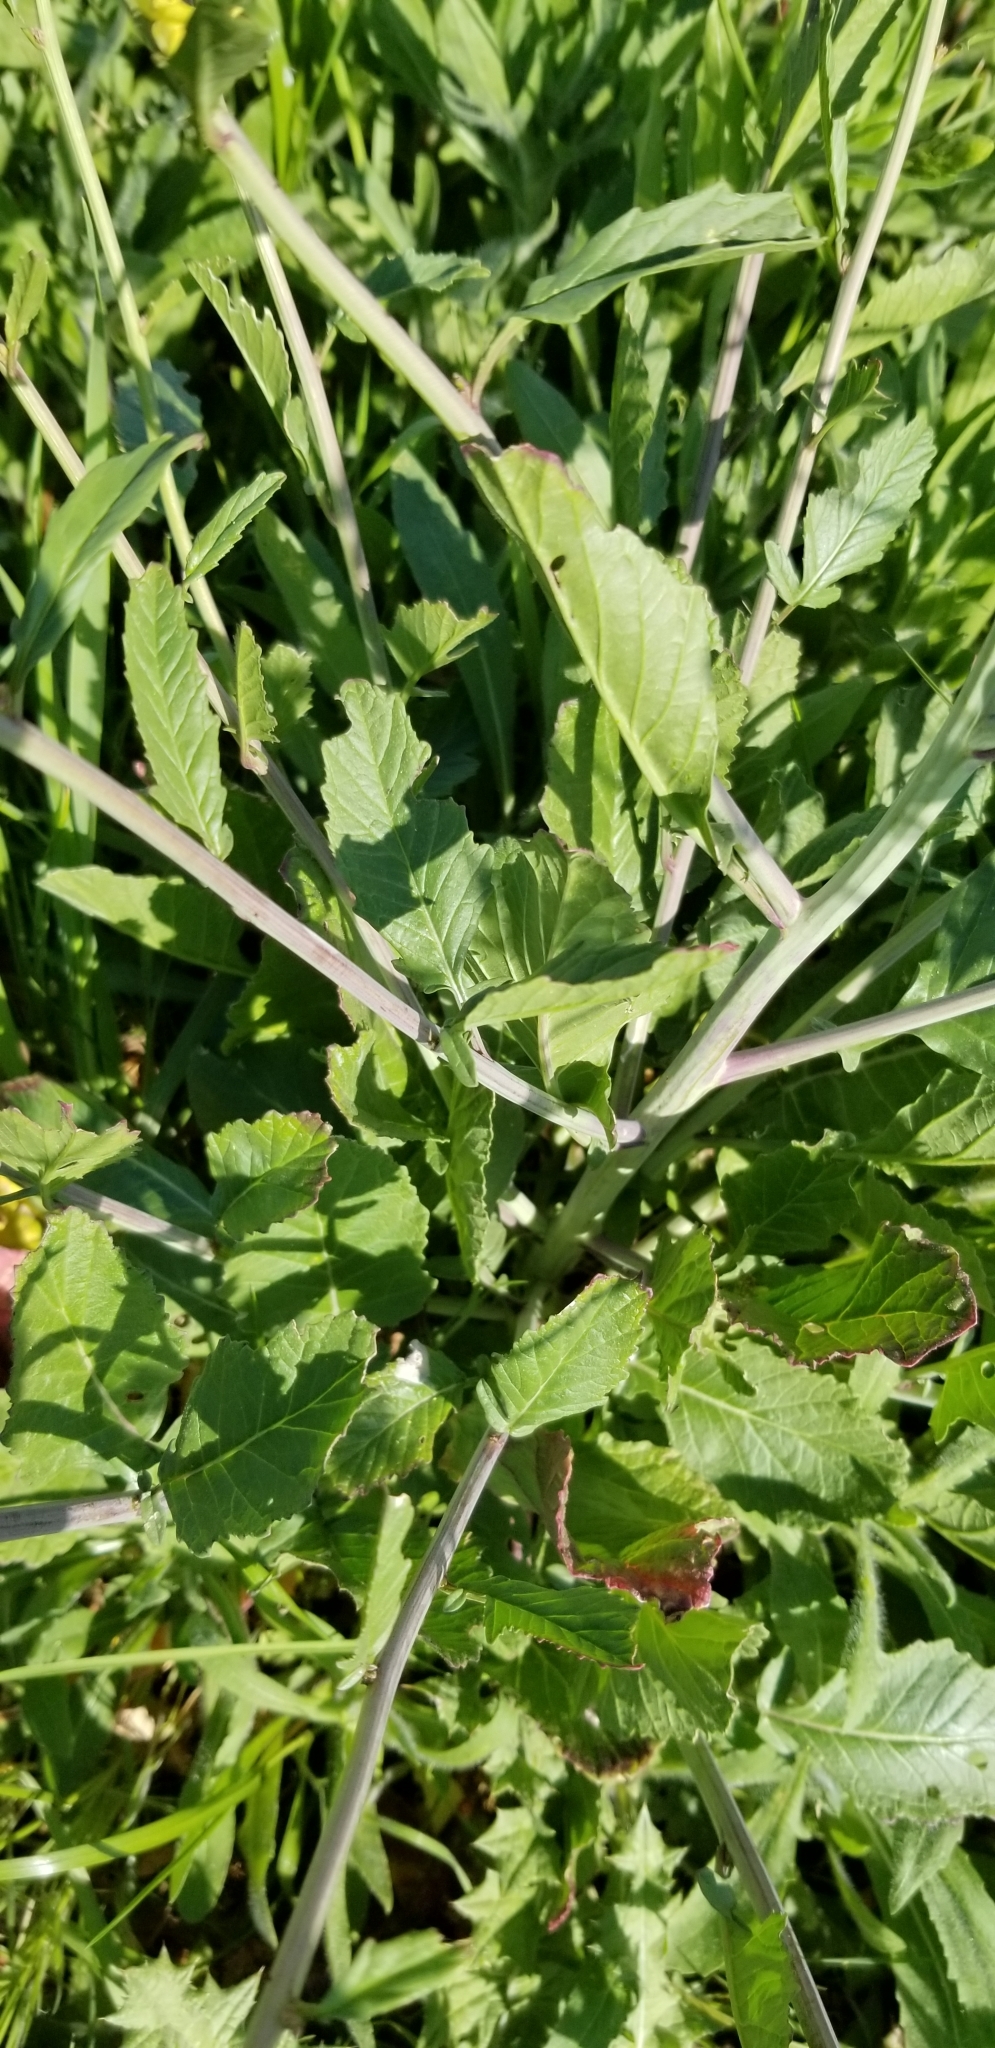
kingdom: Plantae
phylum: Tracheophyta
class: Magnoliopsida
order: Brassicales
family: Brassicaceae
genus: Rapistrum
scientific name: Rapistrum rugosum
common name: Annual bastardcabbage
